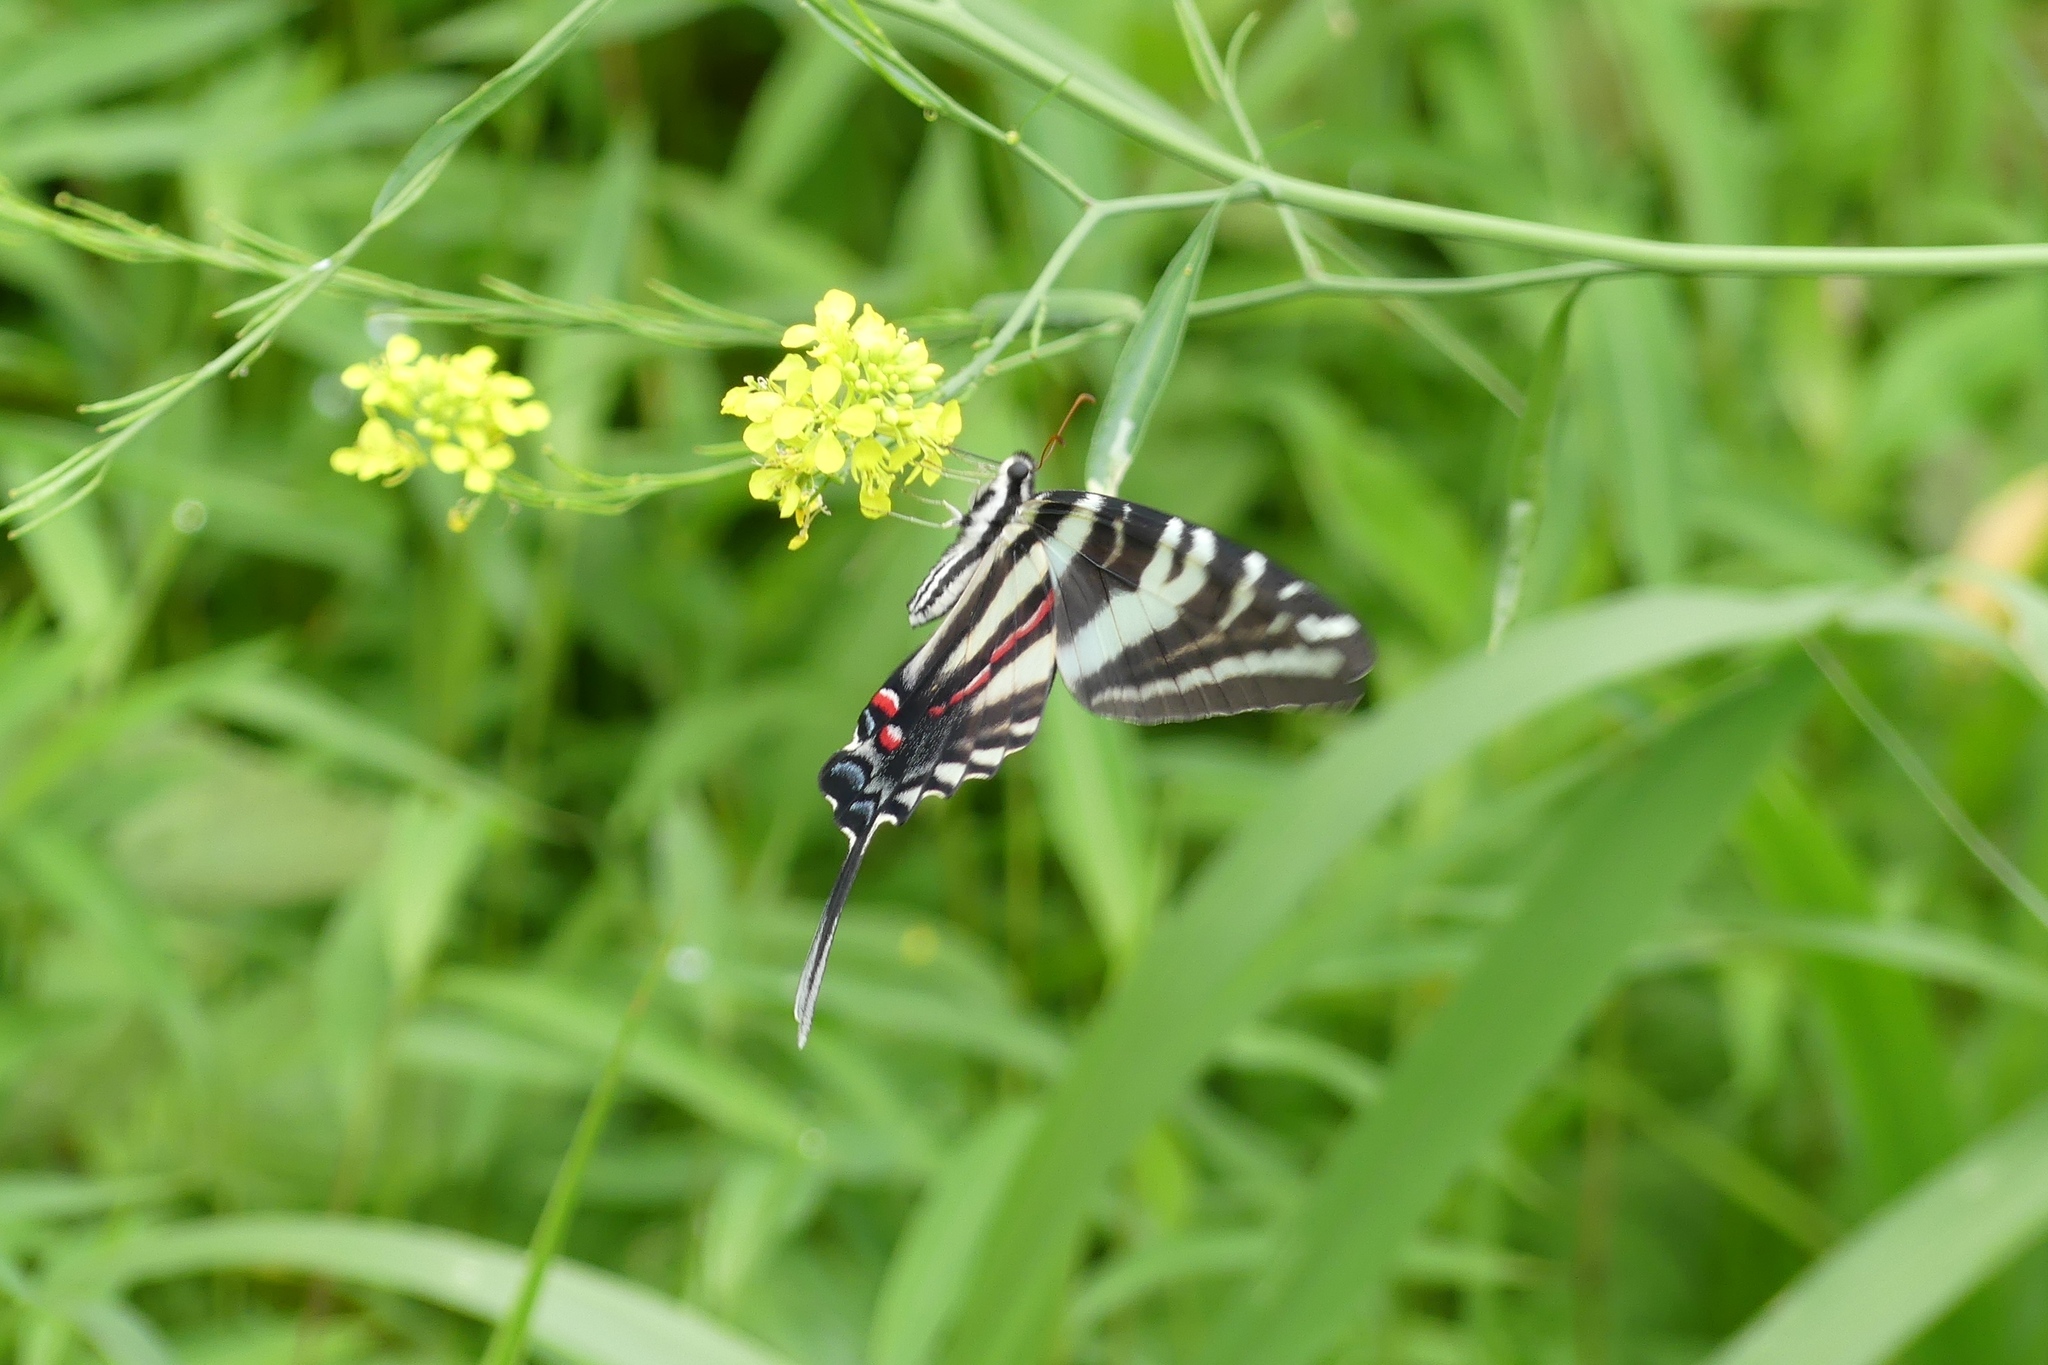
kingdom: Animalia
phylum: Arthropoda
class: Insecta
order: Lepidoptera
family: Papilionidae
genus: Protographium
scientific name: Protographium marcellus
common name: Zebra swallowtail
